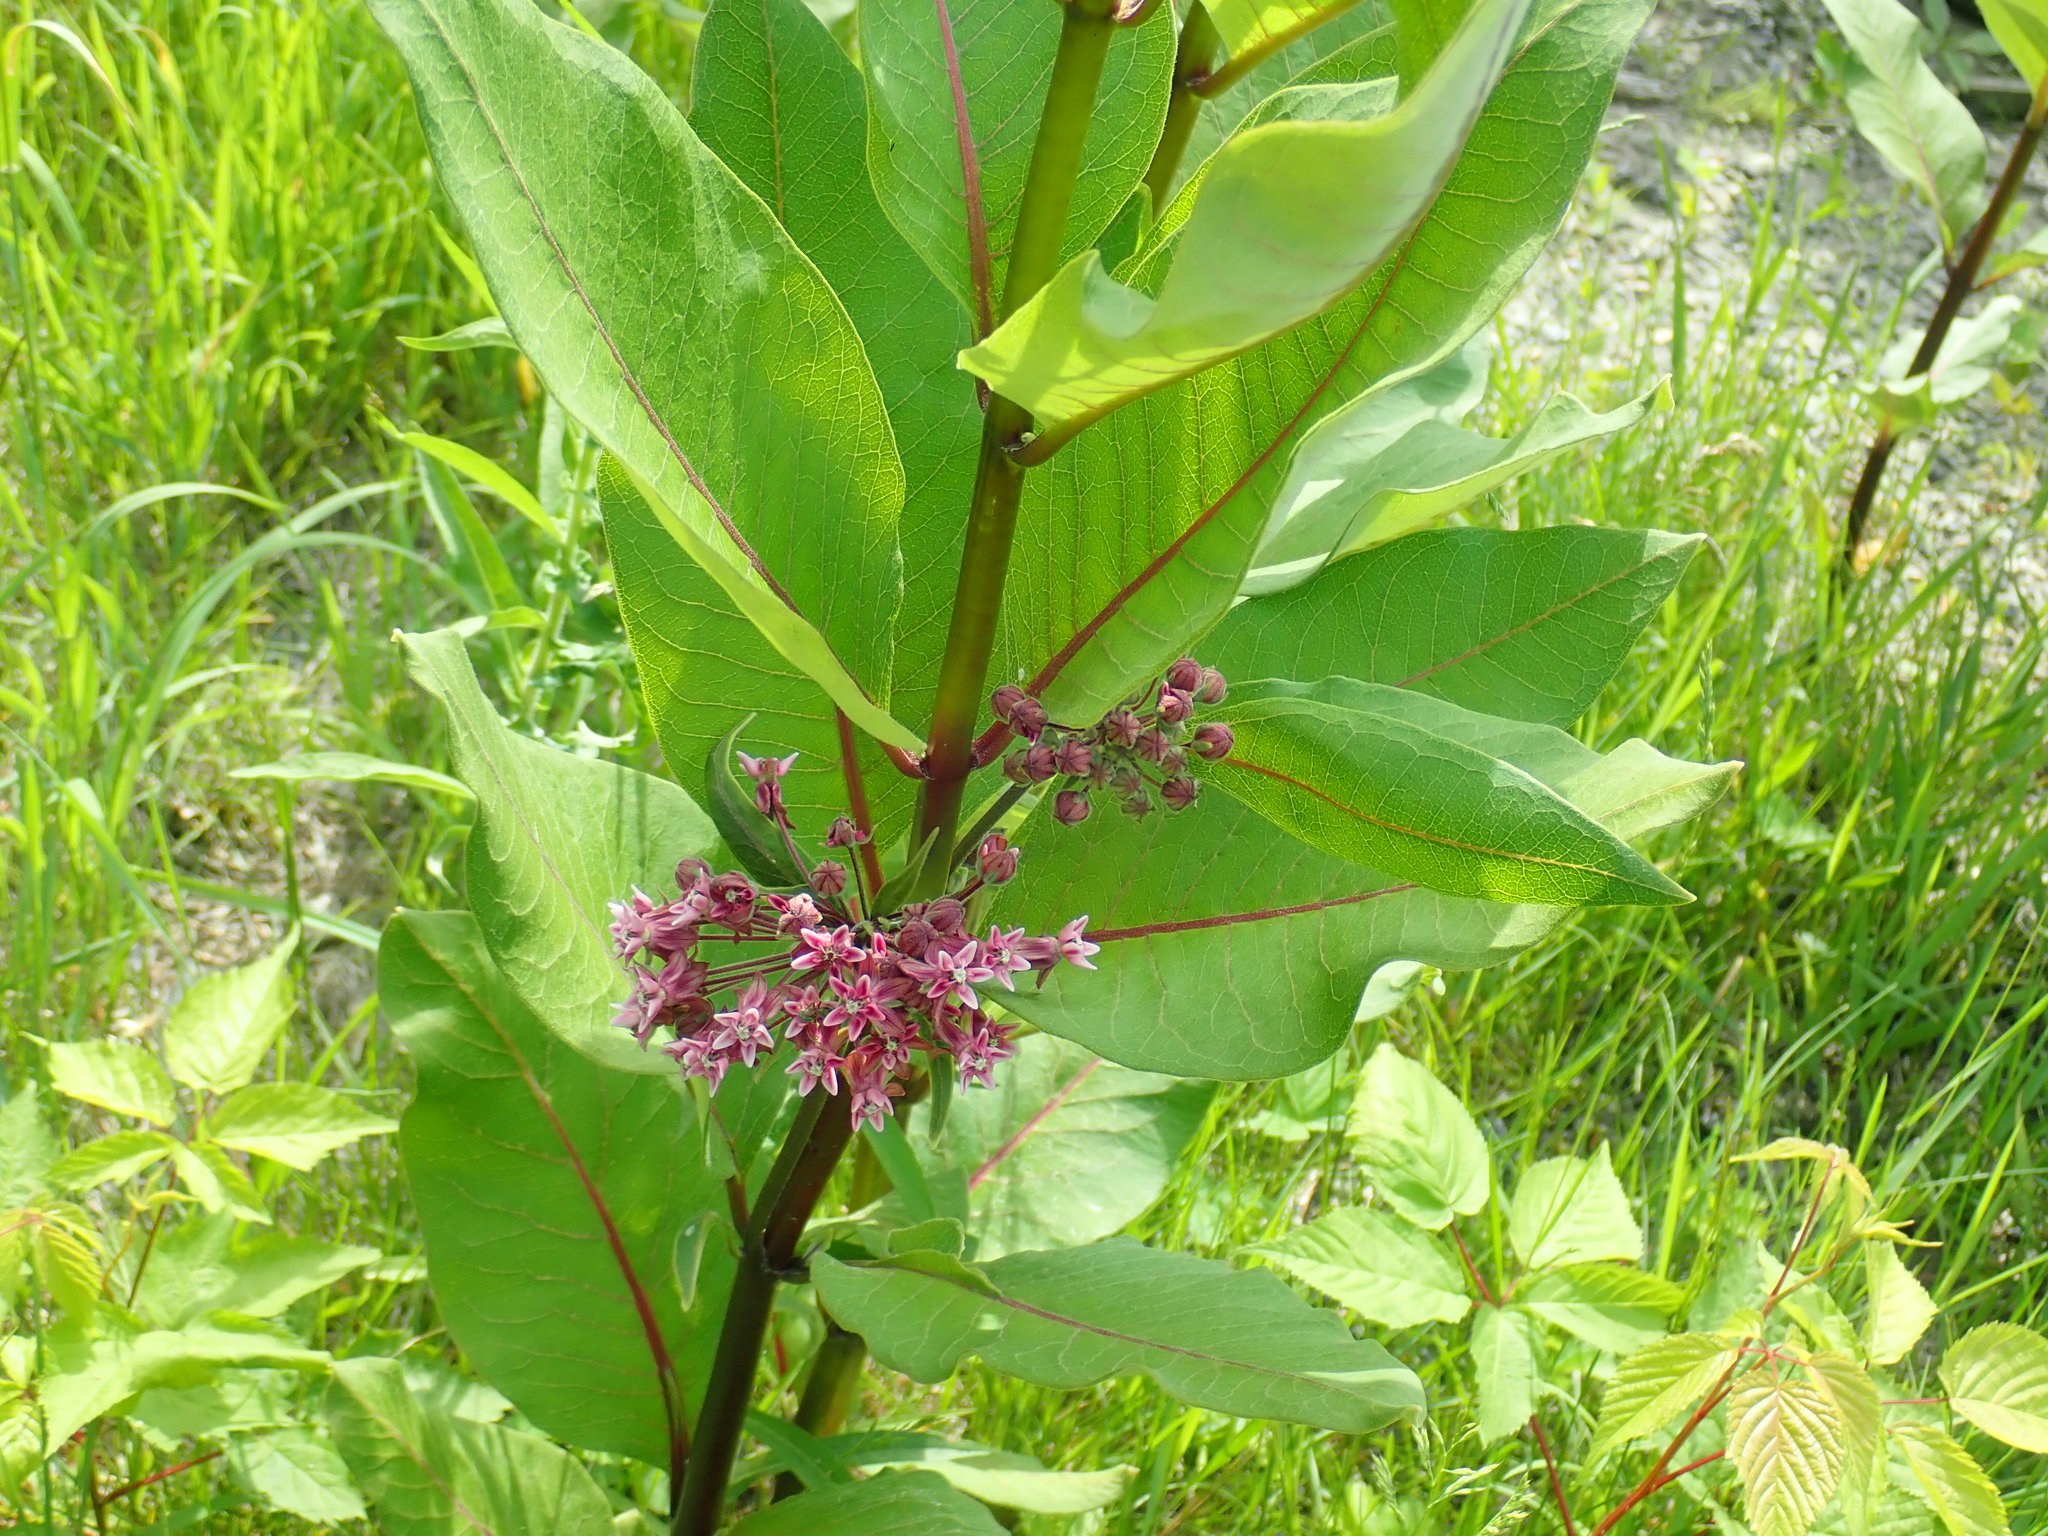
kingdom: Plantae
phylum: Tracheophyta
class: Magnoliopsida
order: Gentianales
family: Apocynaceae
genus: Asclepias
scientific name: Asclepias syriaca
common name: Common milkweed
